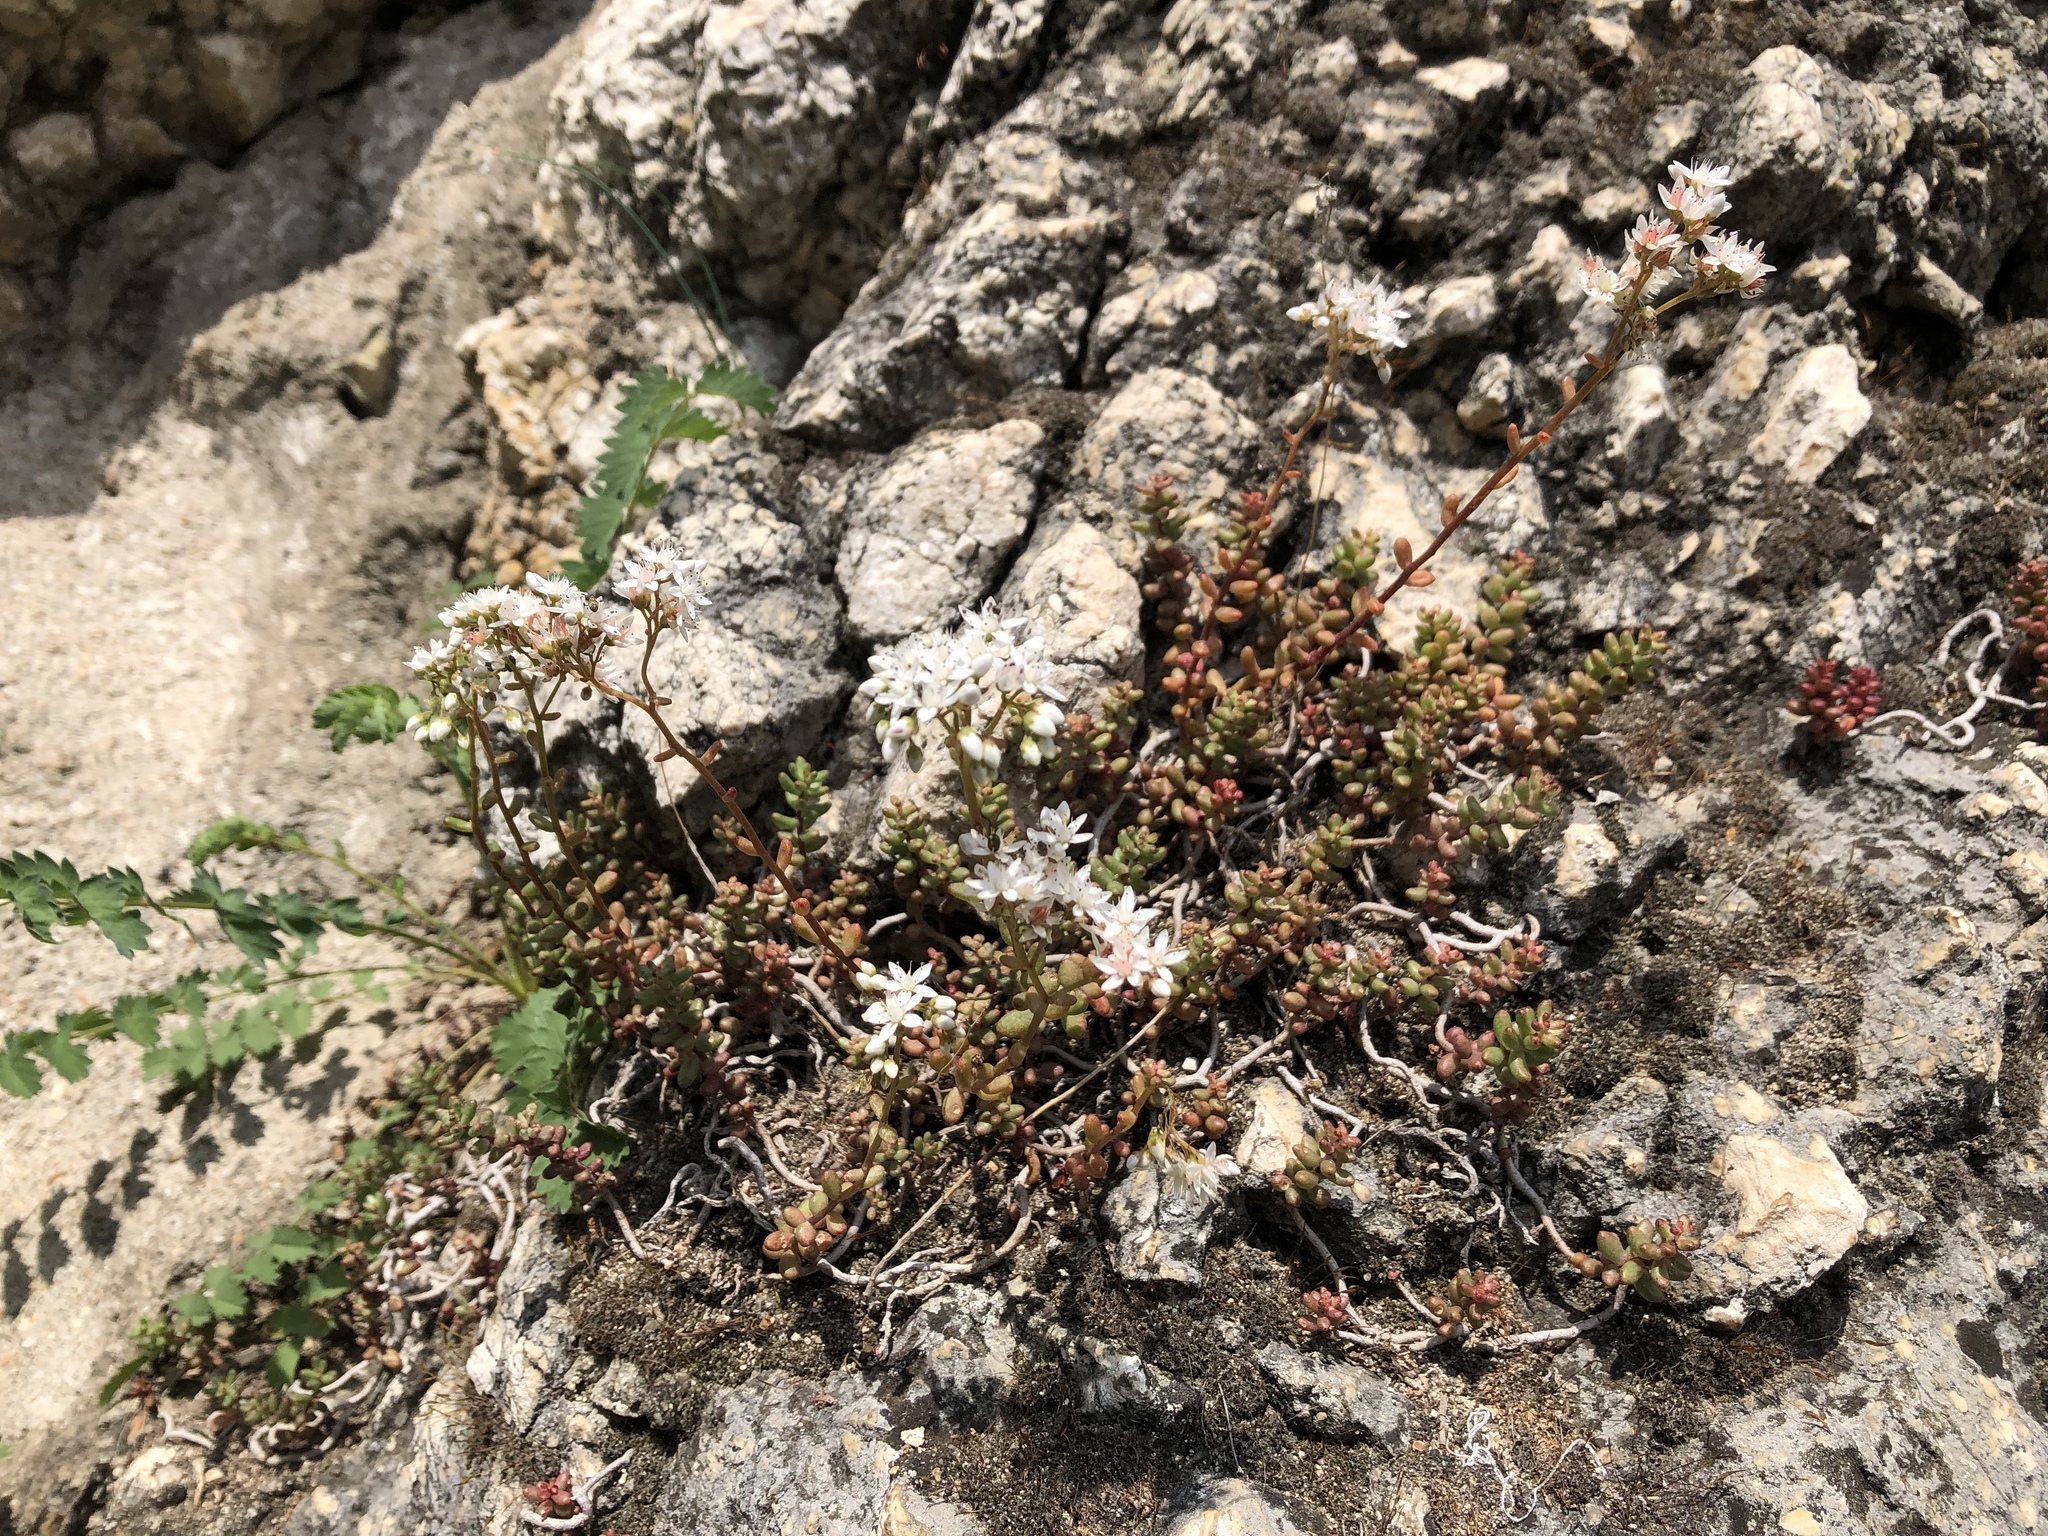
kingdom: Plantae
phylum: Tracheophyta
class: Magnoliopsida
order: Saxifragales
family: Crassulaceae
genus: Sedum
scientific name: Sedum album
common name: White stonecrop
